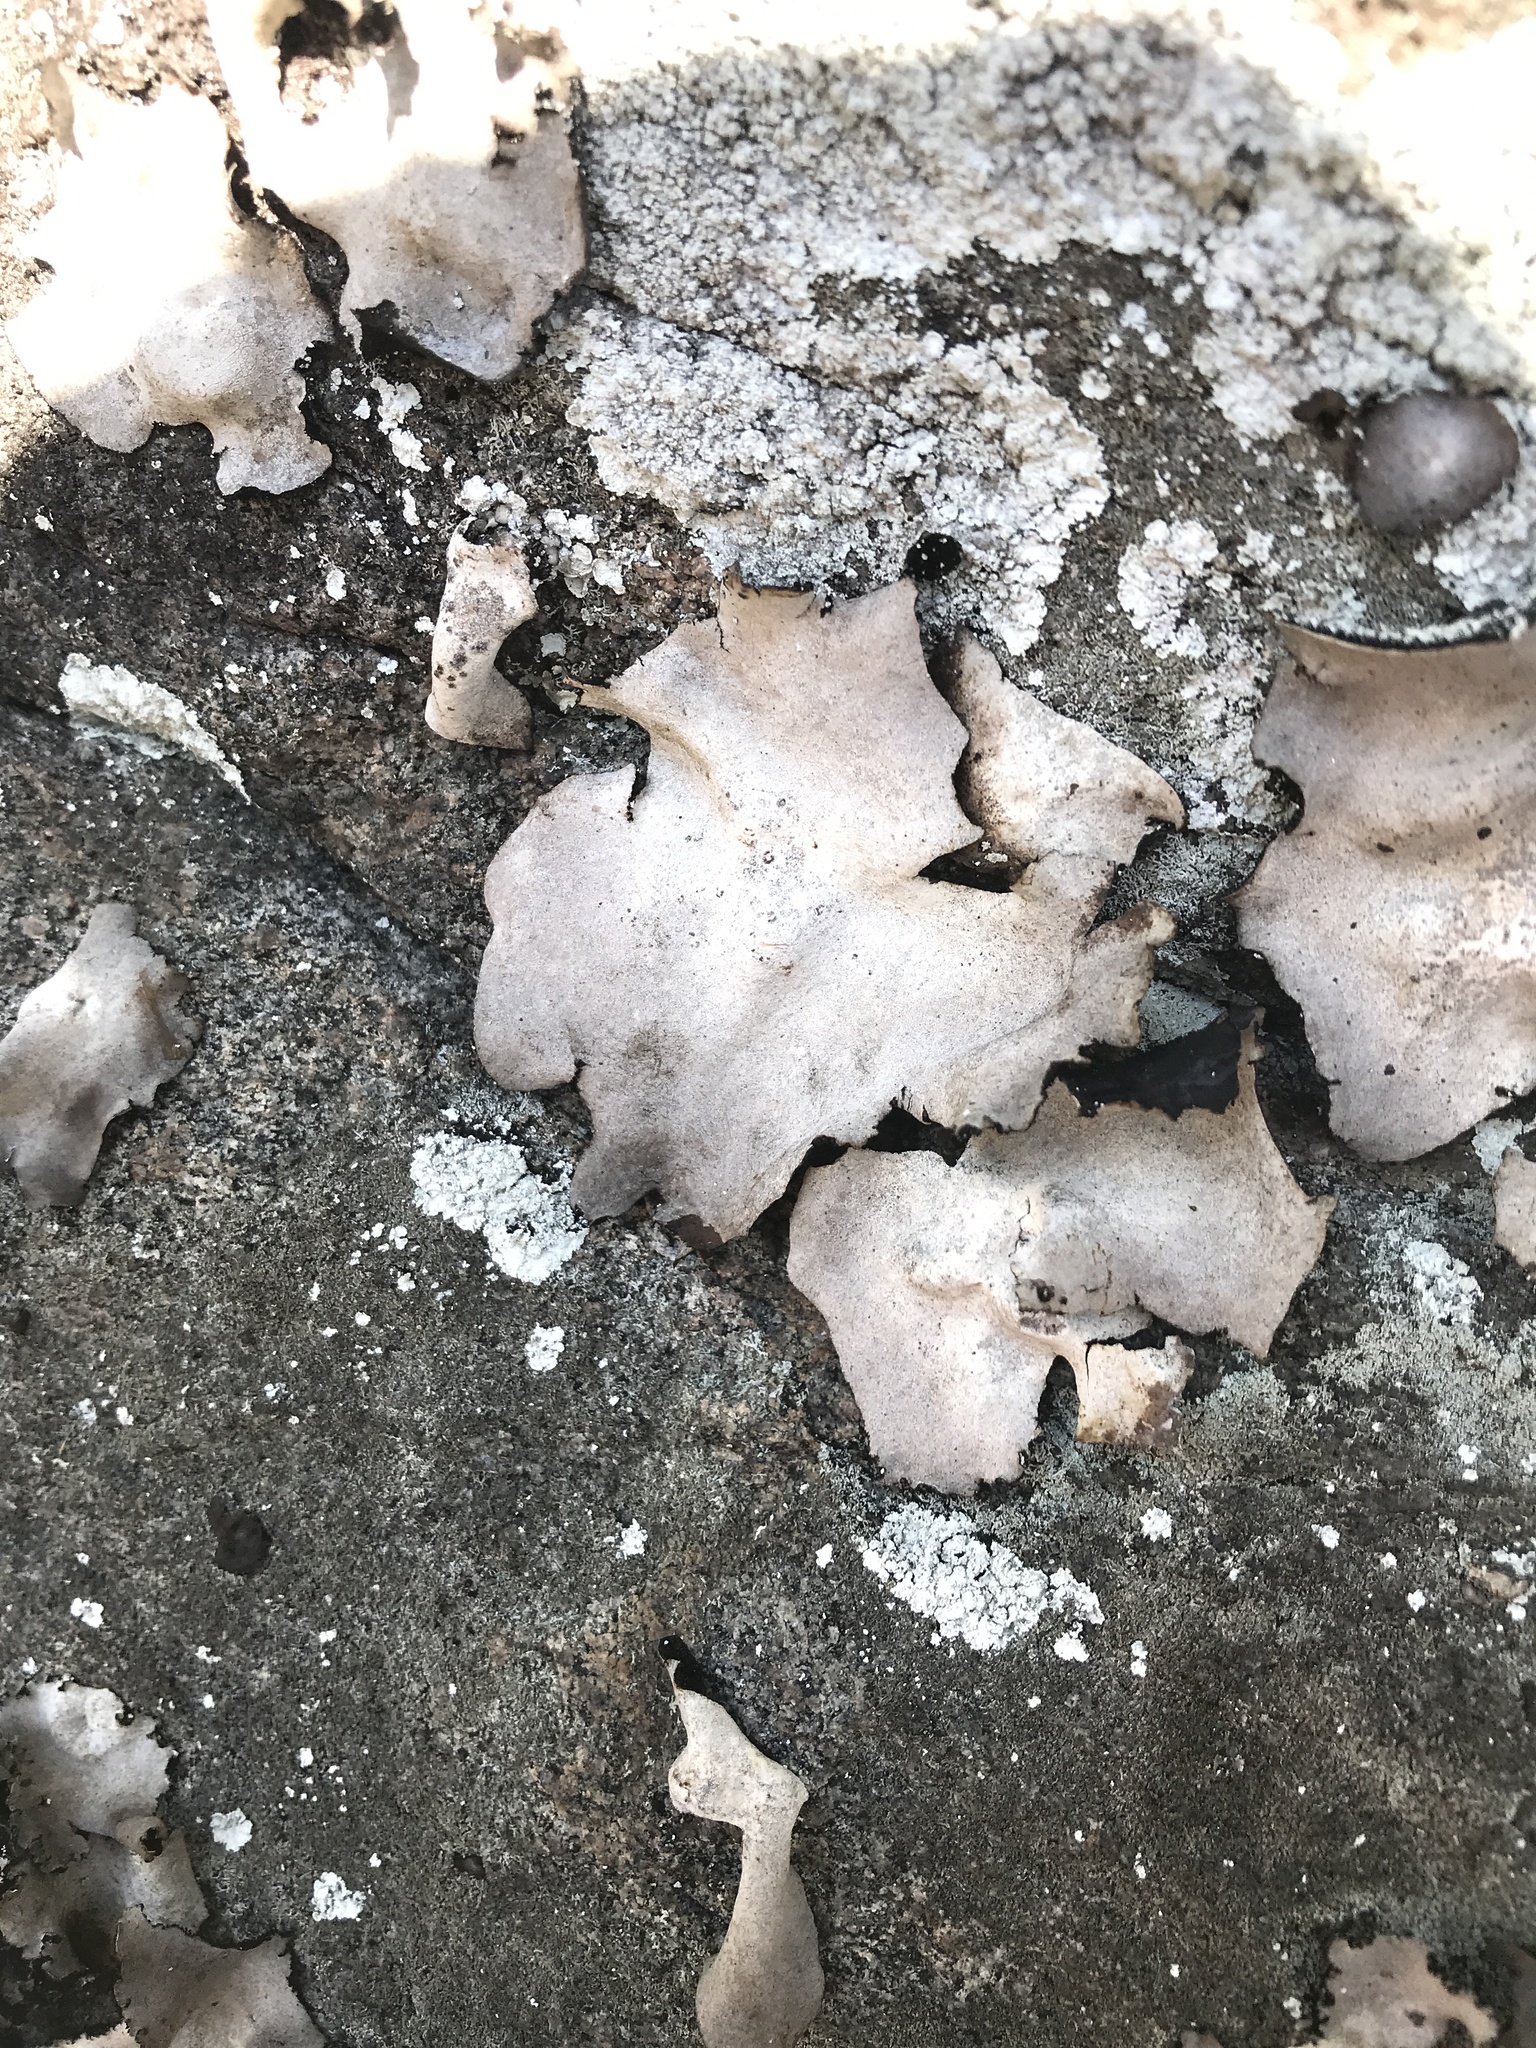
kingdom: Fungi
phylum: Ascomycota
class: Lecanoromycetes
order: Umbilicariales
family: Umbilicariaceae
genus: Umbilicaria
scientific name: Umbilicaria americana
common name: Frosted rock tripe
